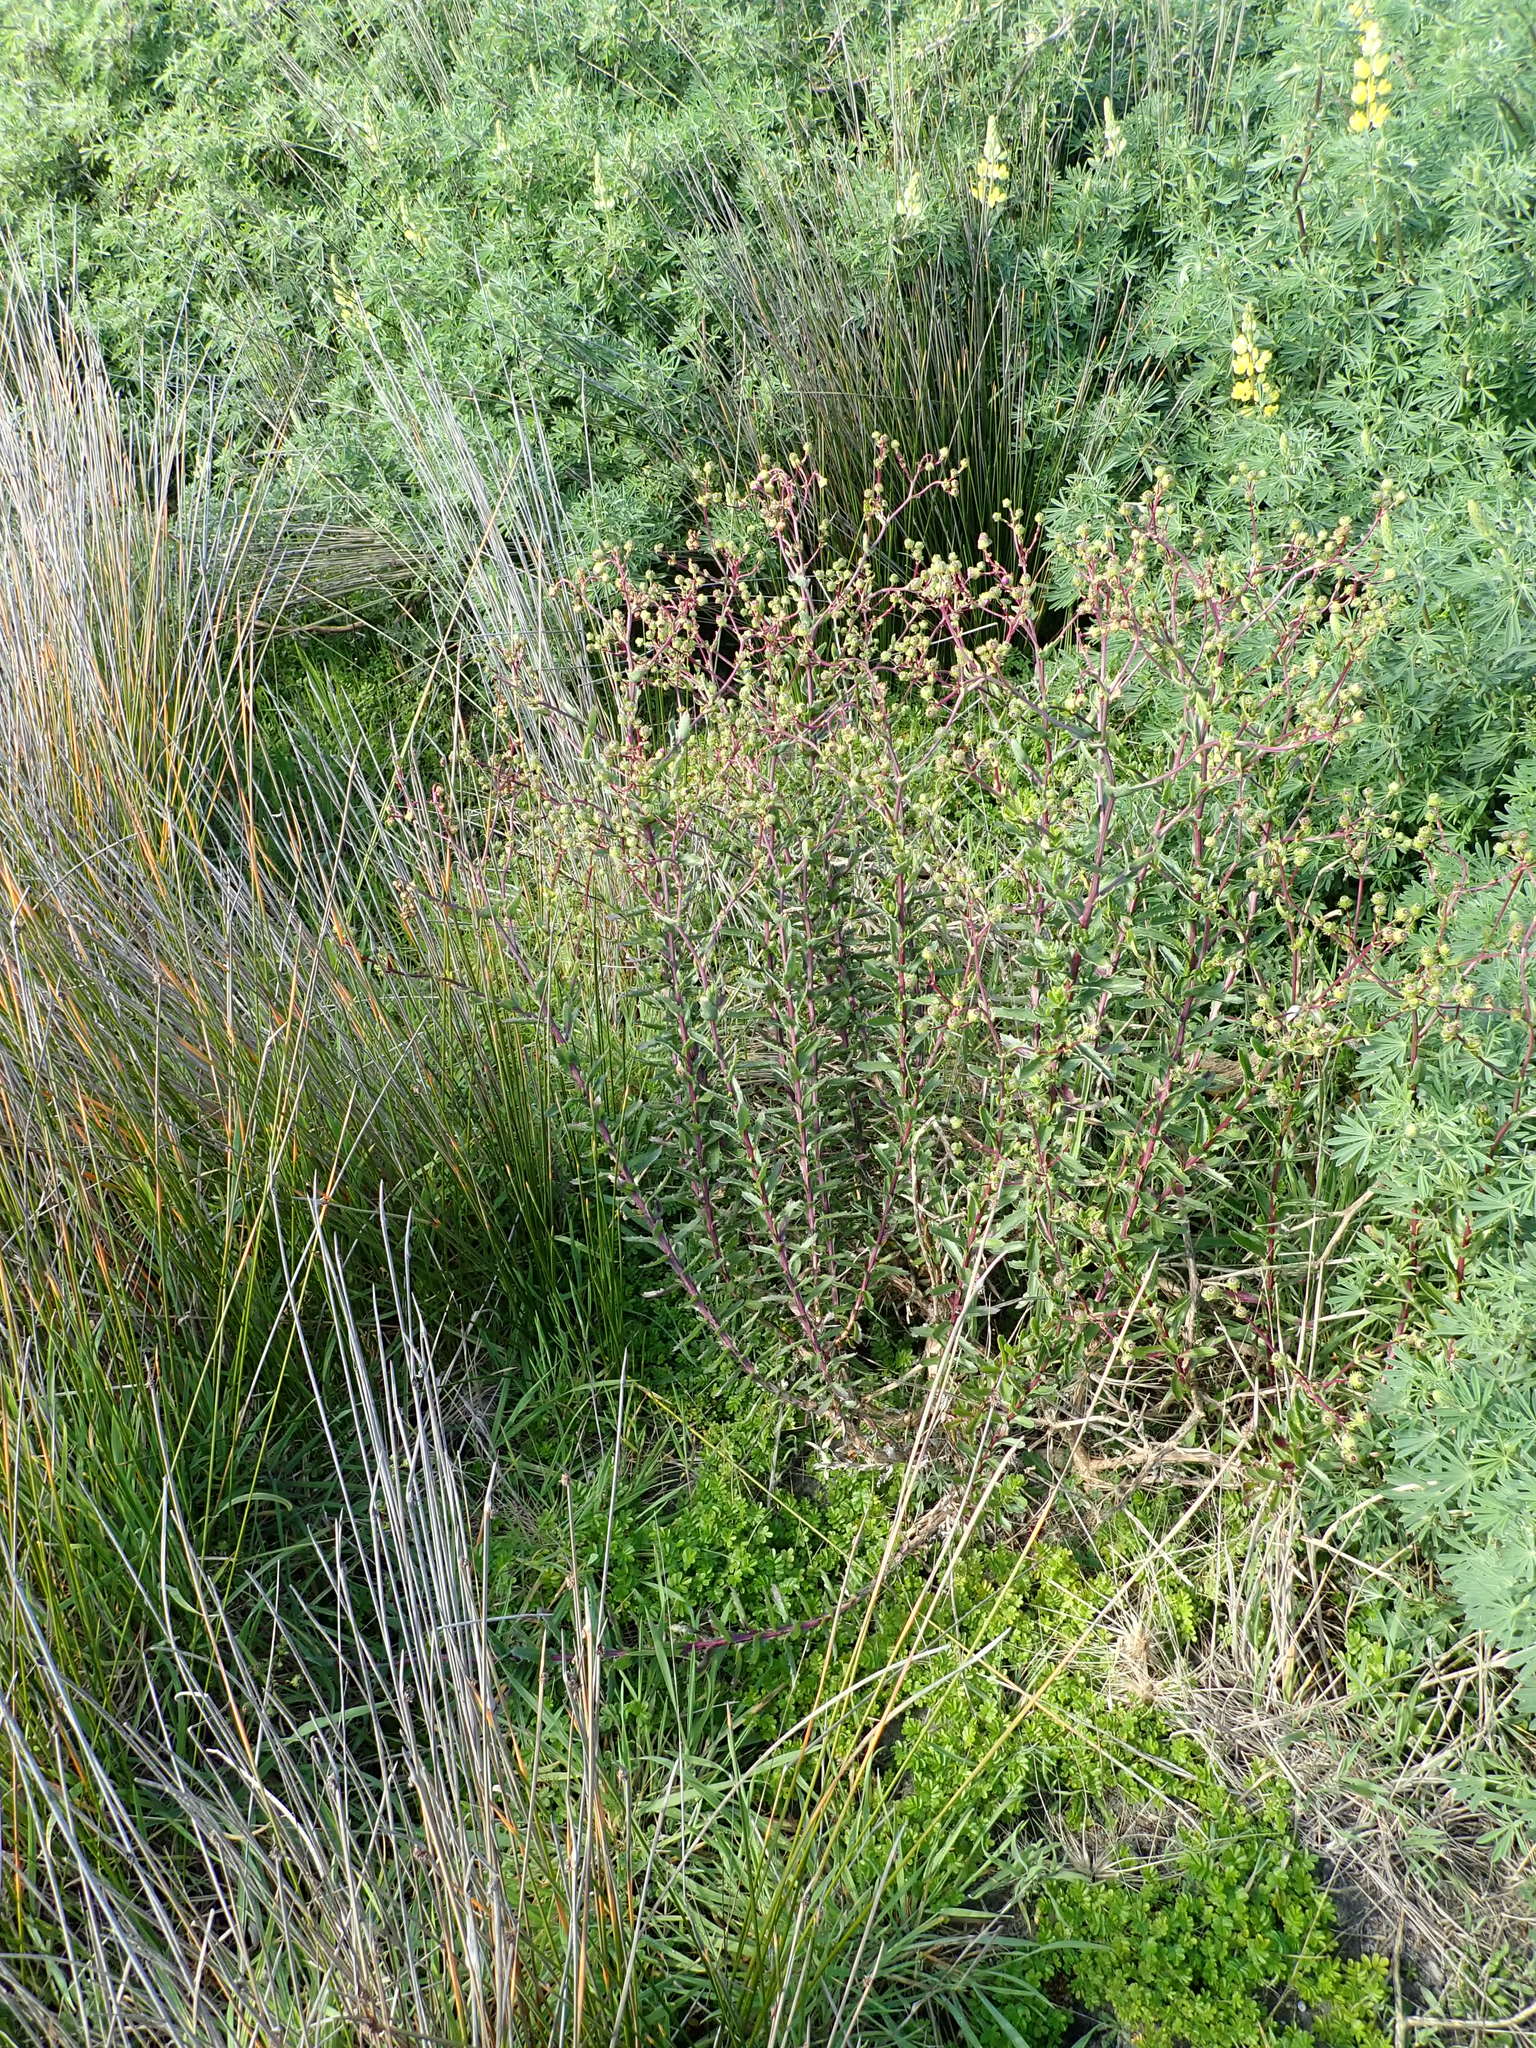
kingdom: Plantae
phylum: Tracheophyta
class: Magnoliopsida
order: Asterales
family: Asteraceae
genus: Senecio
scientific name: Senecio glastifolius
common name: Woad-leaved ragwort
